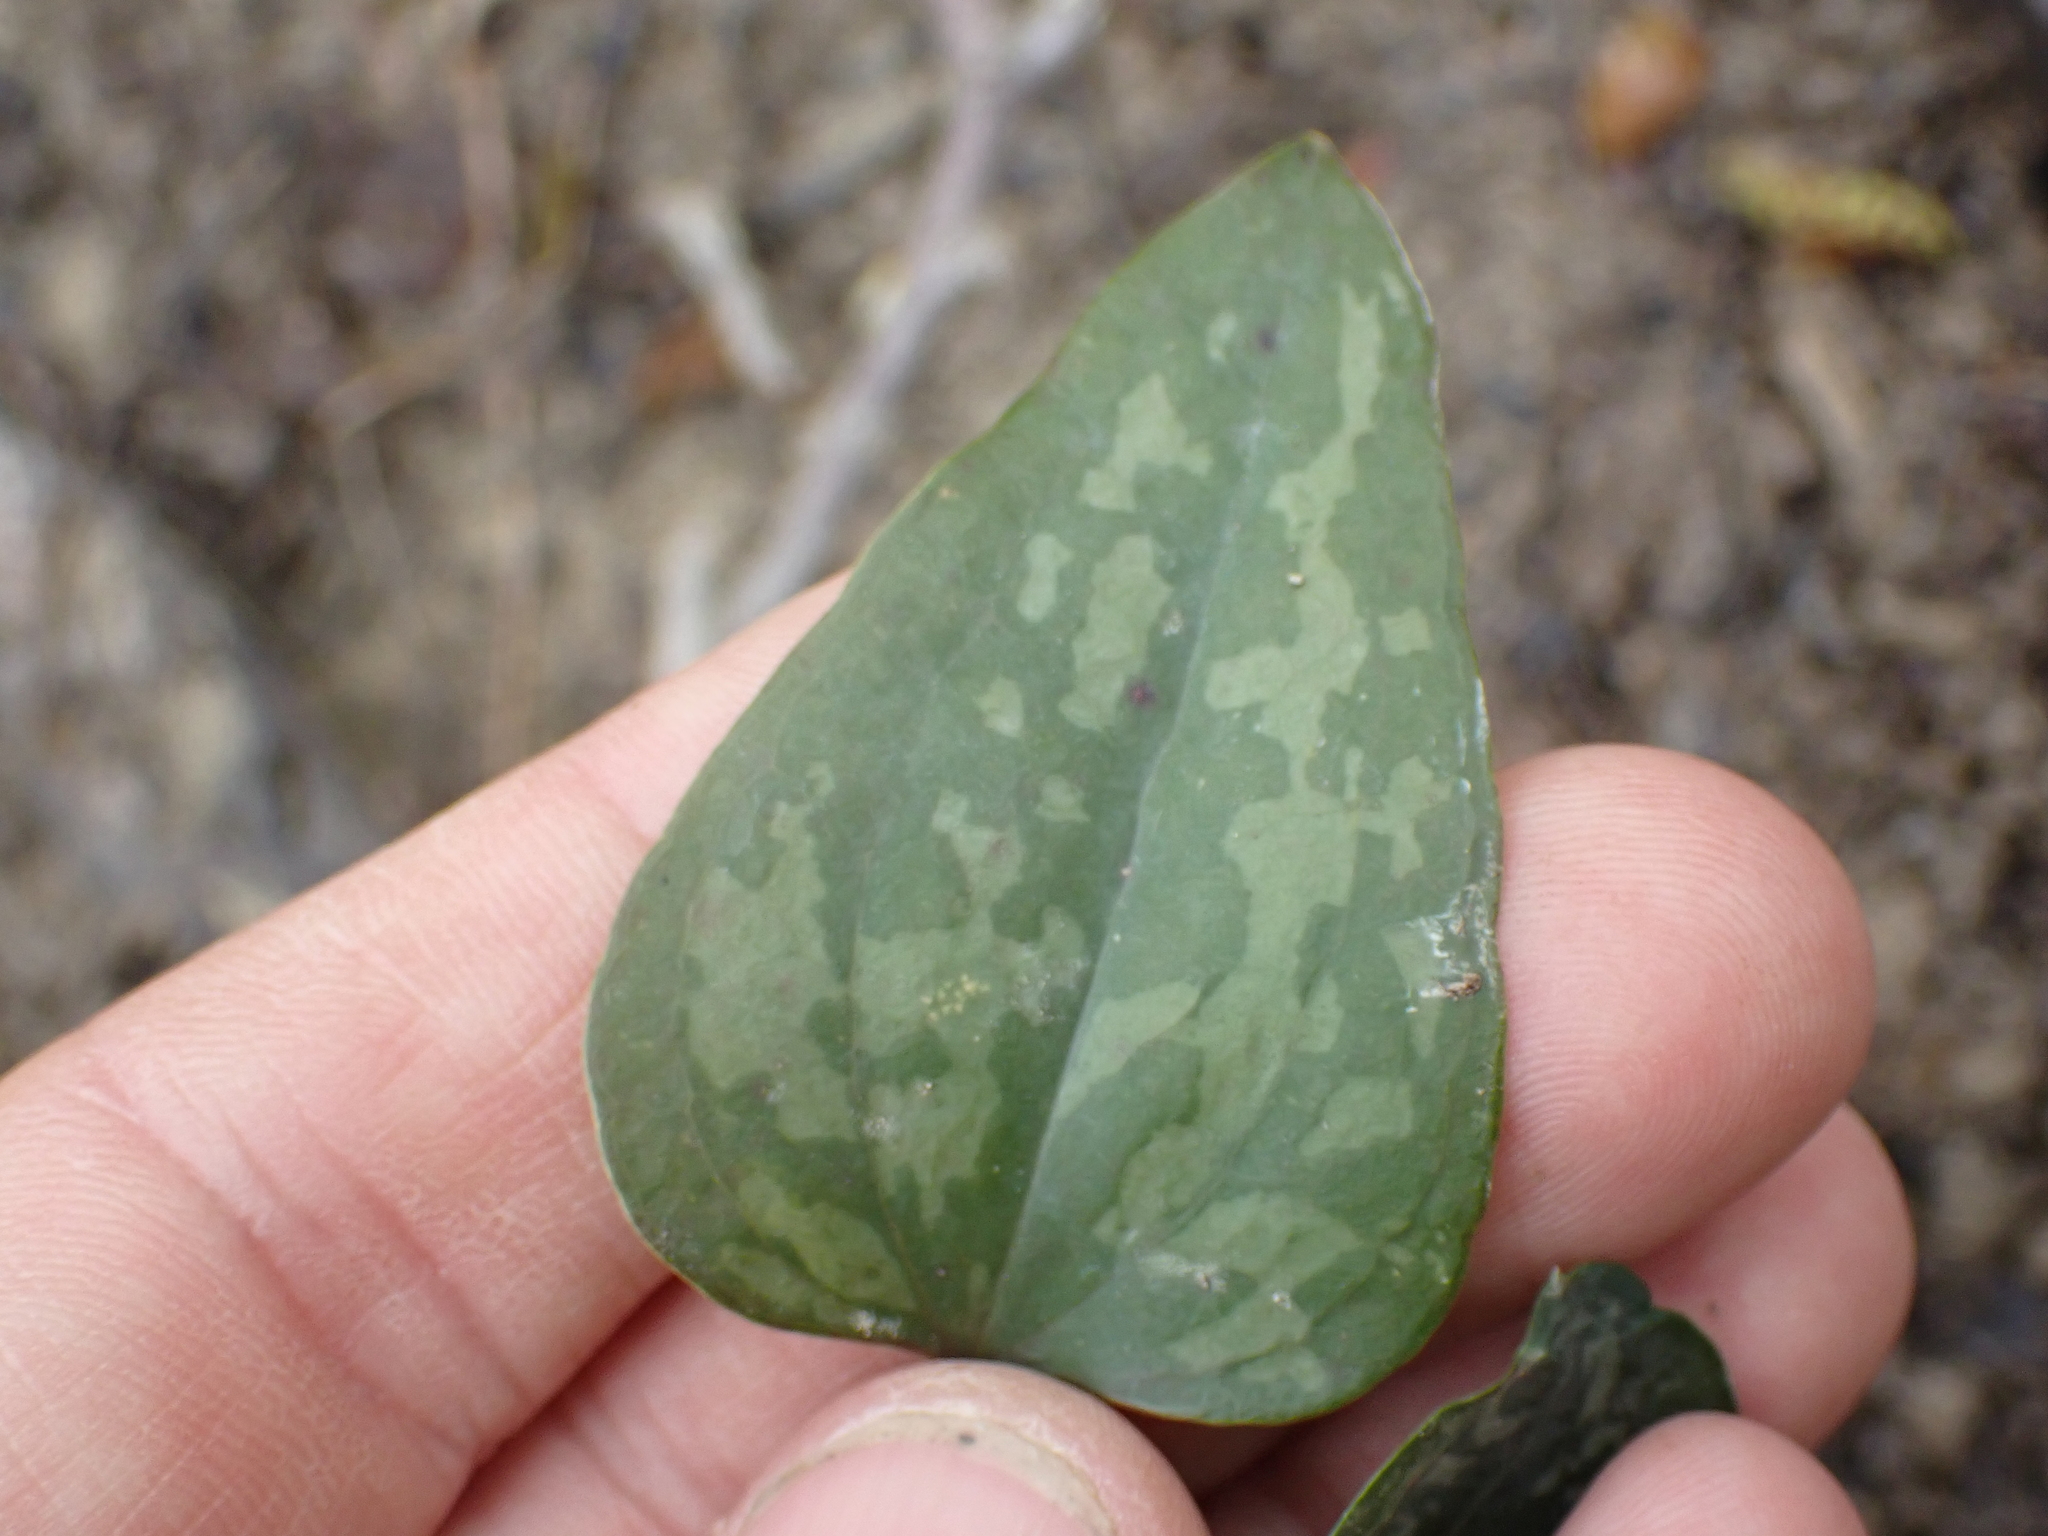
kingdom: Plantae
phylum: Tracheophyta
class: Liliopsida
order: Liliales
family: Smilacaceae
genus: Smilax
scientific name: Smilax glauca
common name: Cat greenbrier
